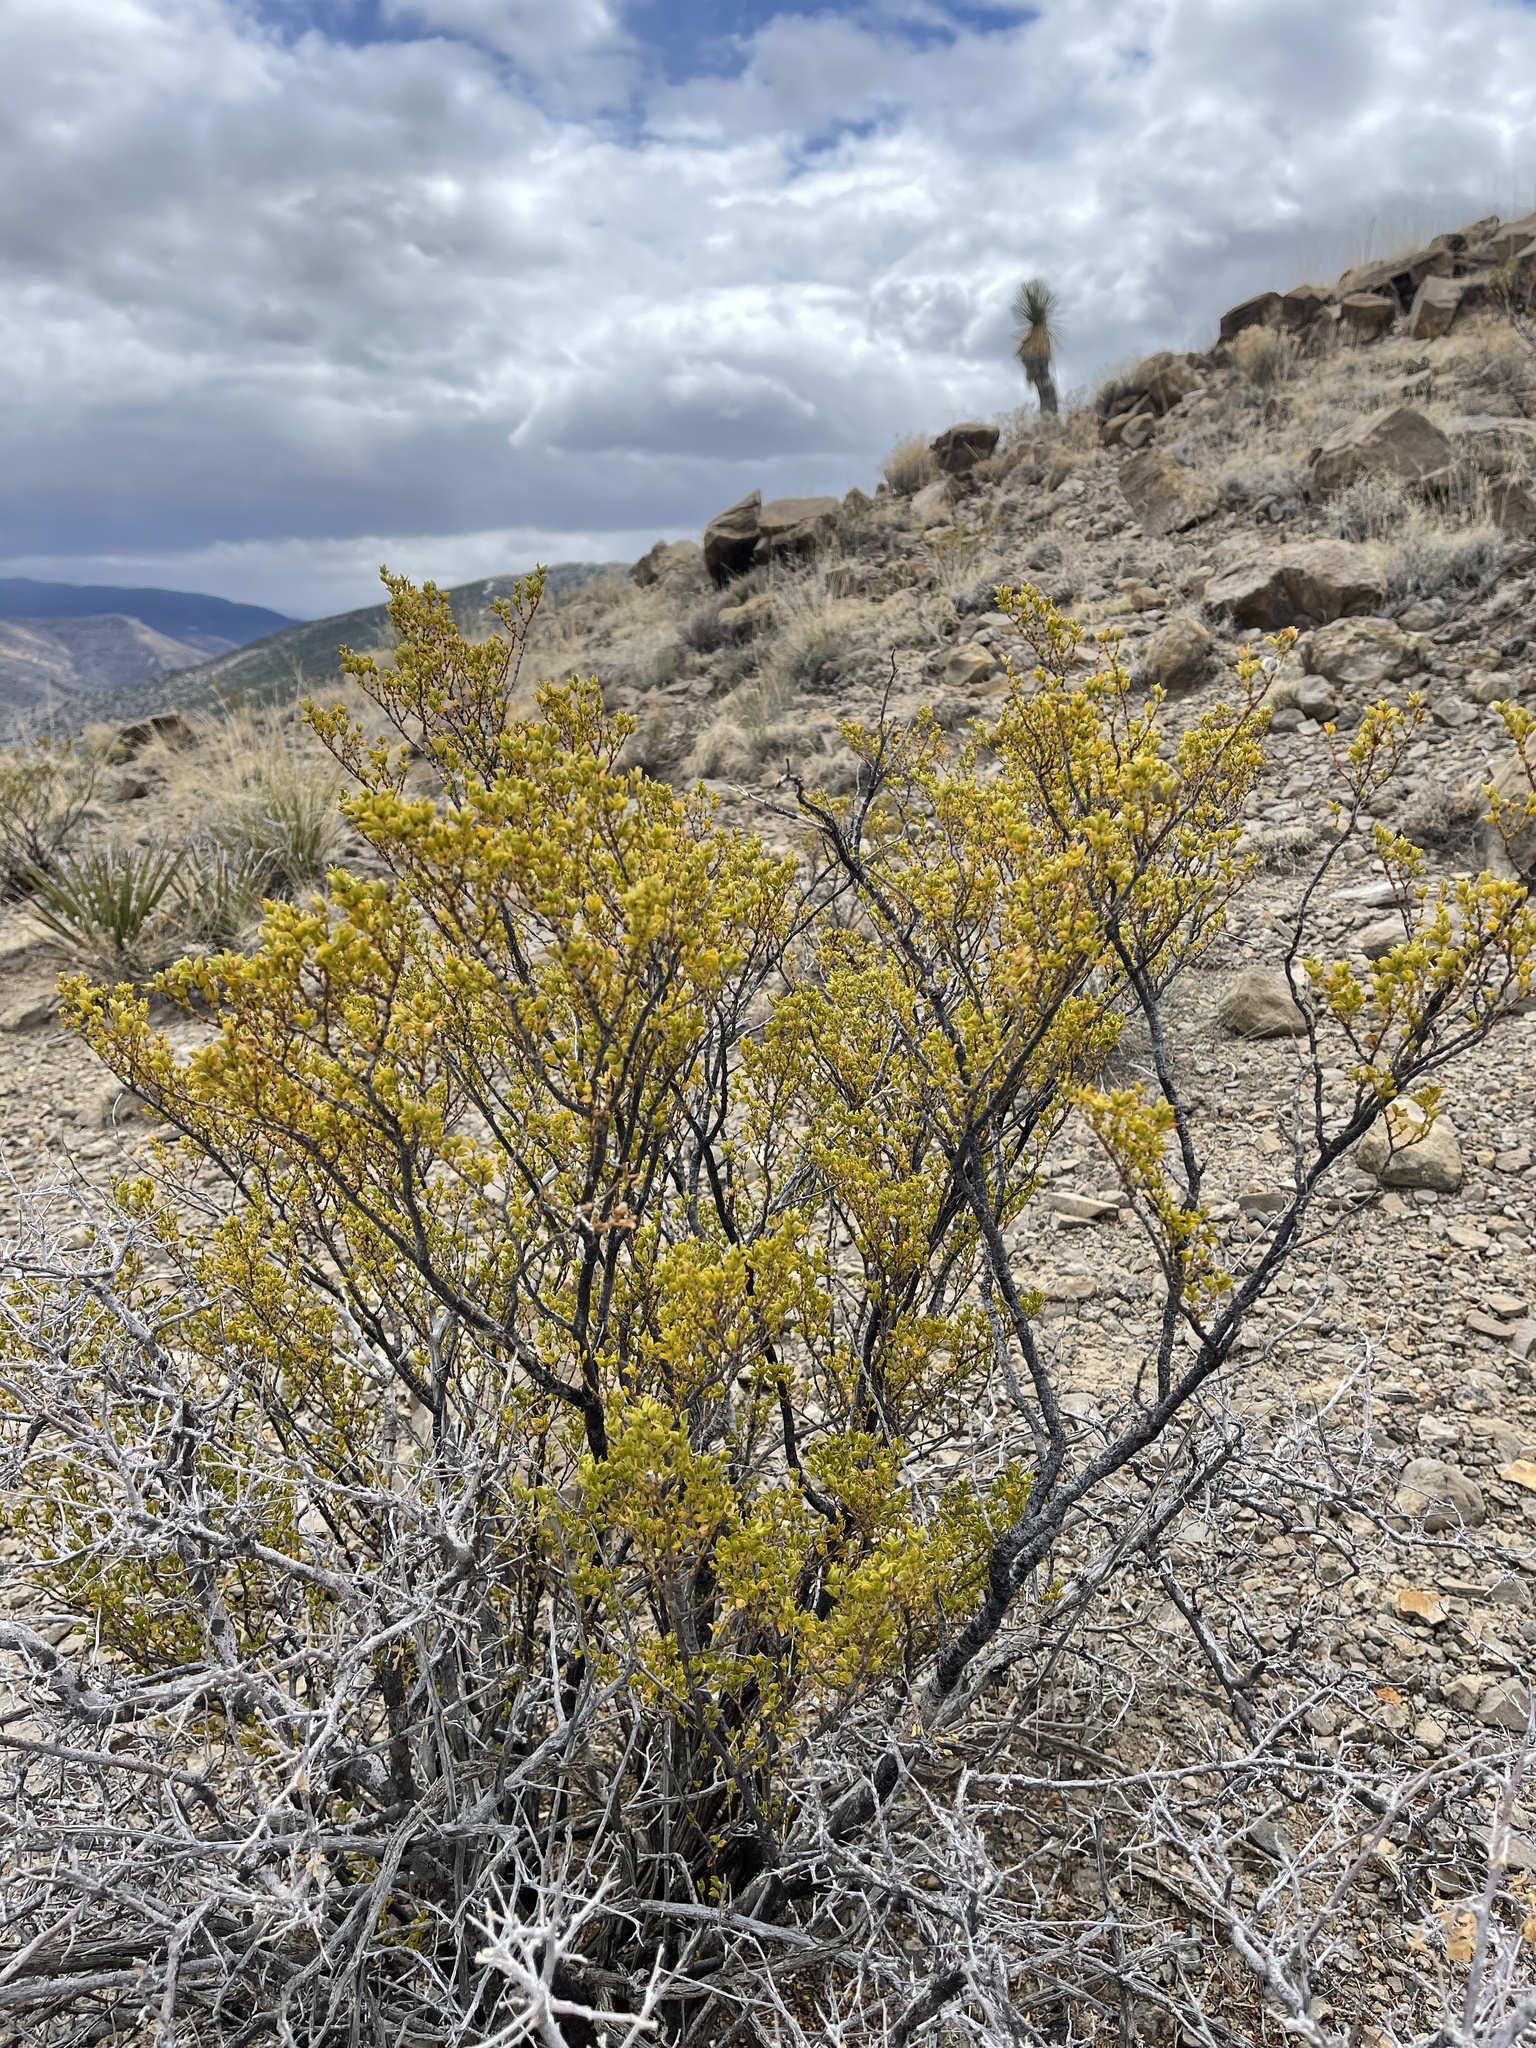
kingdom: Plantae
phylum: Tracheophyta
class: Magnoliopsida
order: Zygophyllales
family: Zygophyllaceae
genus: Larrea
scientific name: Larrea tridentata
